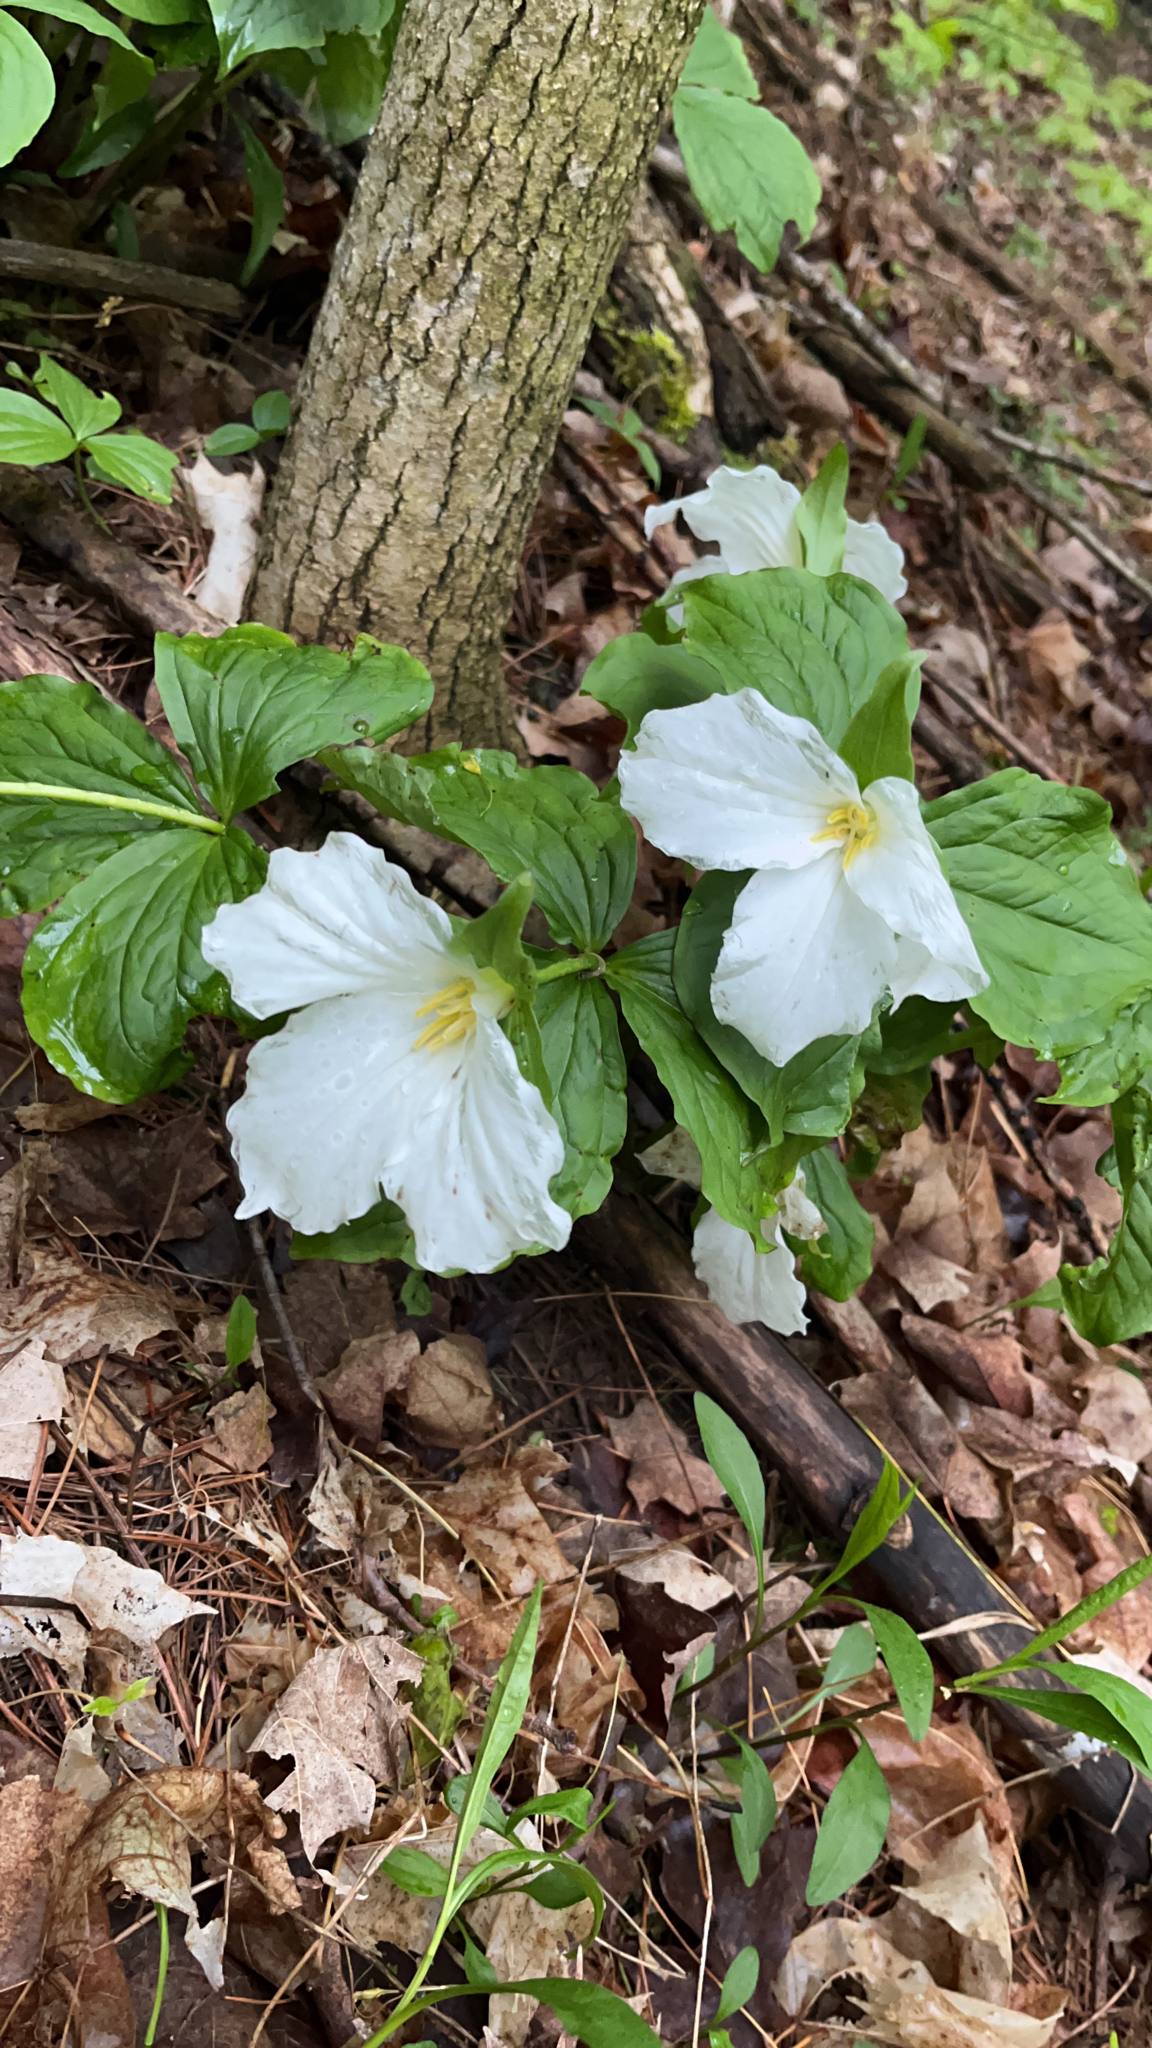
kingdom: Plantae
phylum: Tracheophyta
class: Liliopsida
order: Liliales
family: Melanthiaceae
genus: Trillium
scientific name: Trillium grandiflorum
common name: Great white trillium
